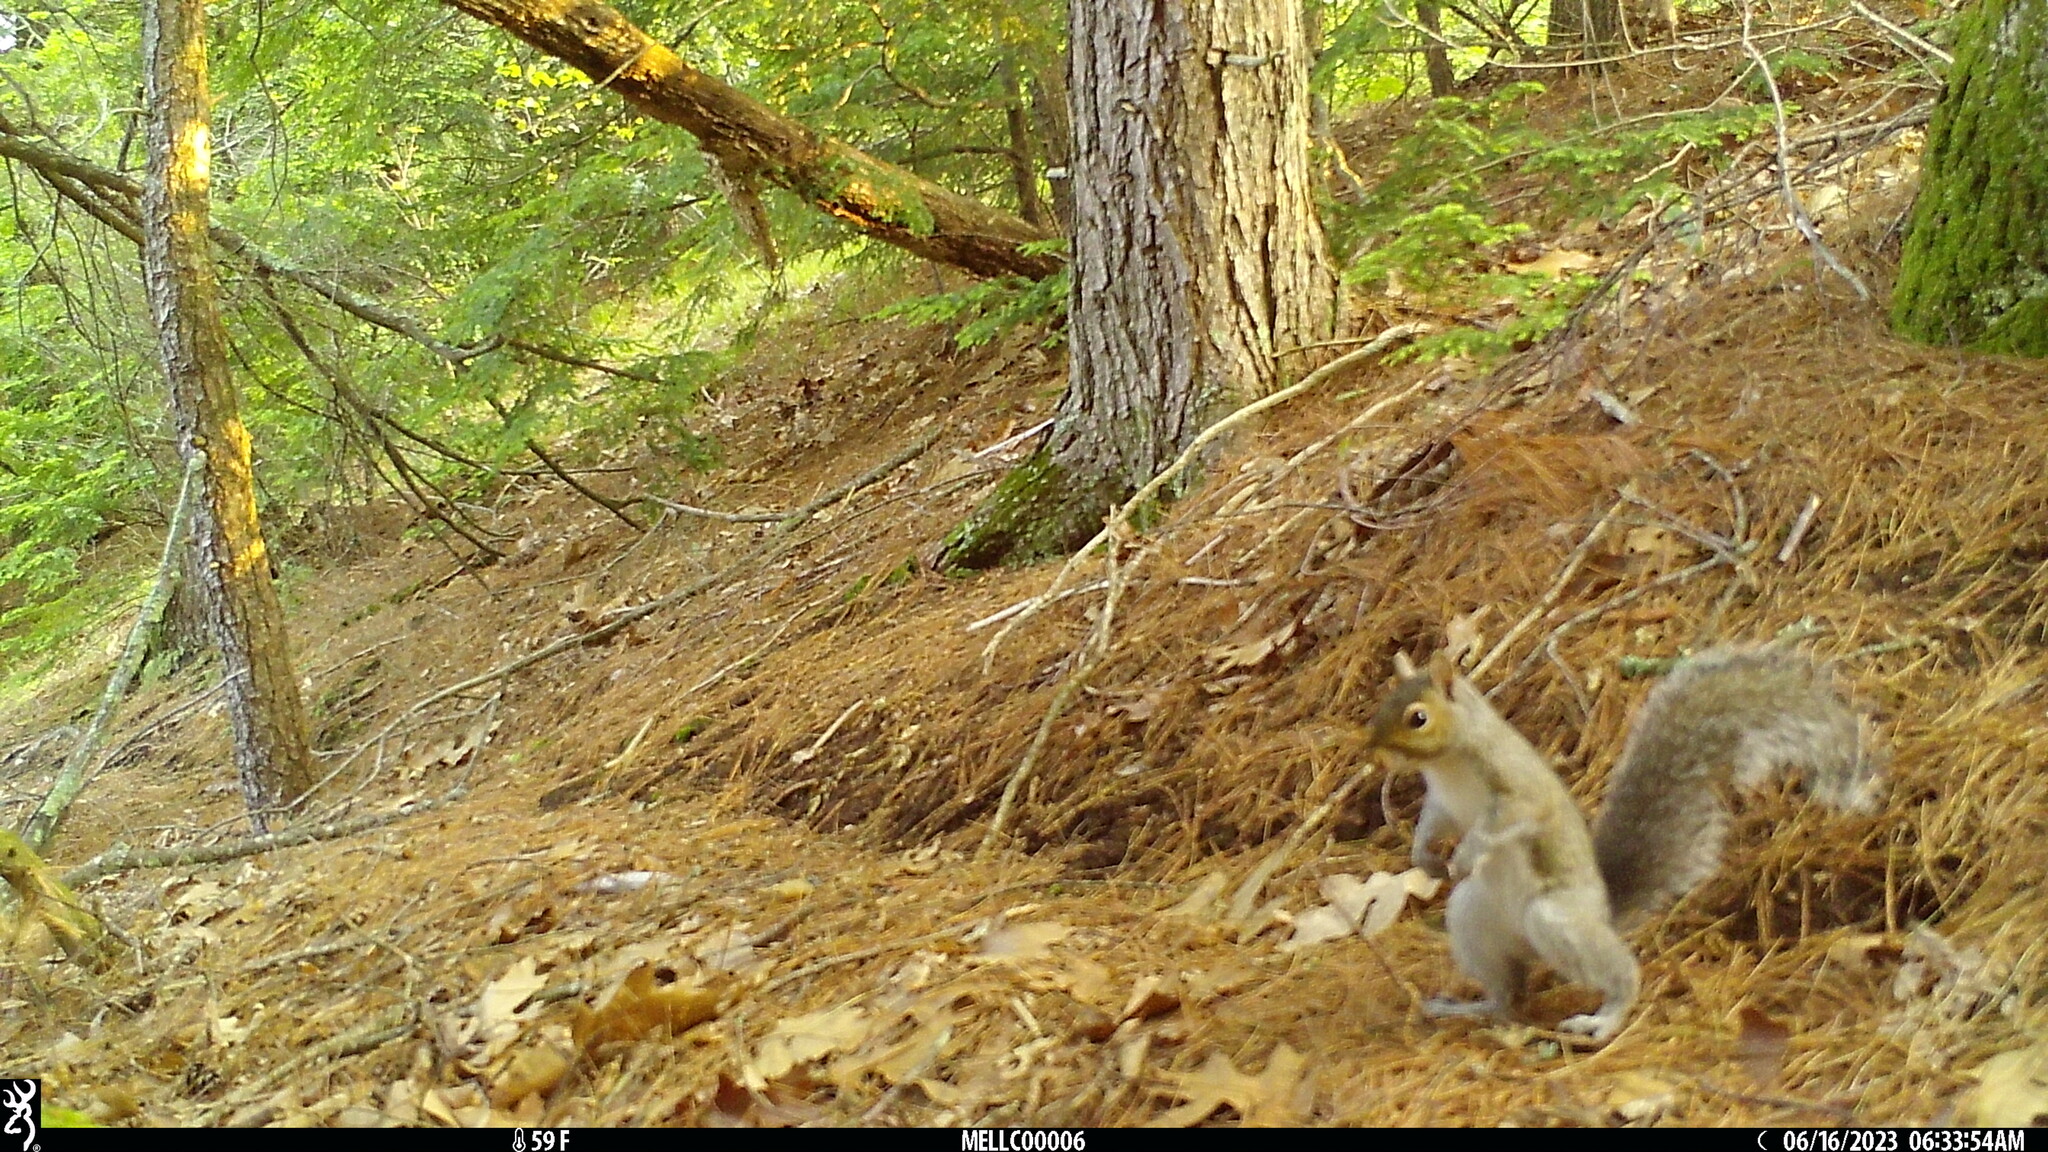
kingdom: Animalia
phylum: Chordata
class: Mammalia
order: Rodentia
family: Sciuridae
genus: Sciurus
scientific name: Sciurus carolinensis
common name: Eastern gray squirrel
